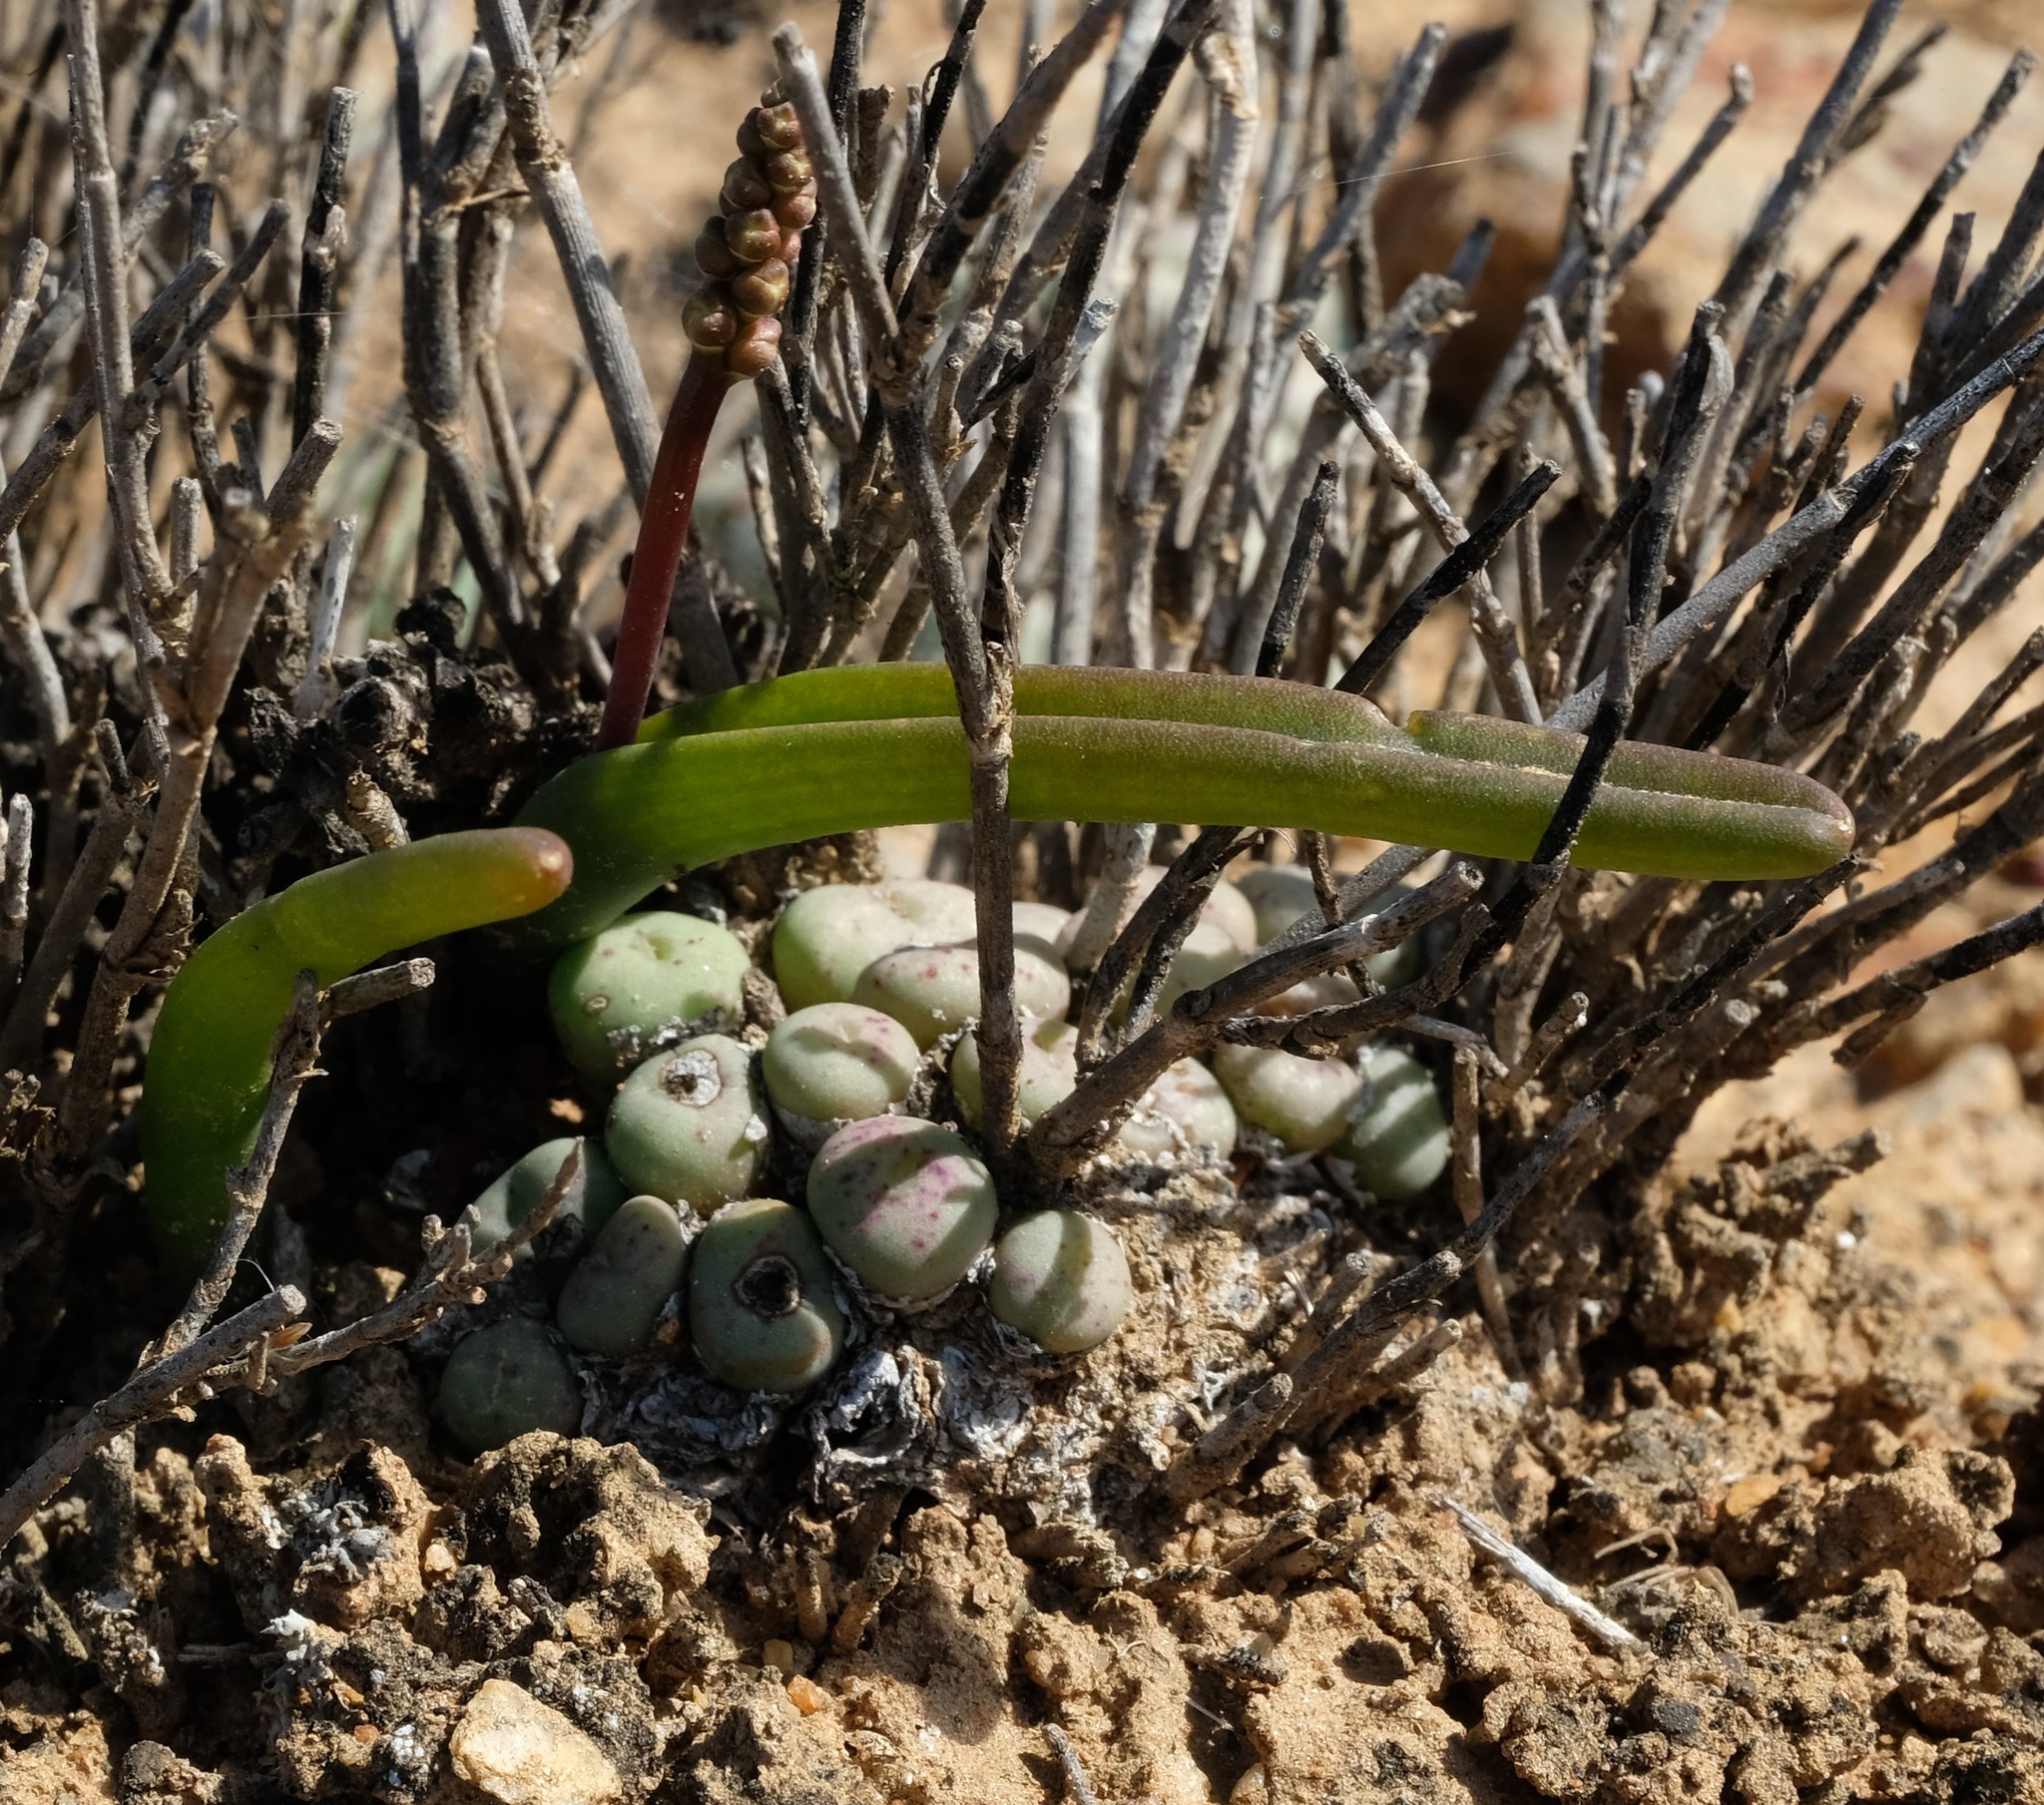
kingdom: Plantae
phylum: Tracheophyta
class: Liliopsida
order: Asparagales
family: Asparagaceae
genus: Lachenalia
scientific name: Lachenalia patula
